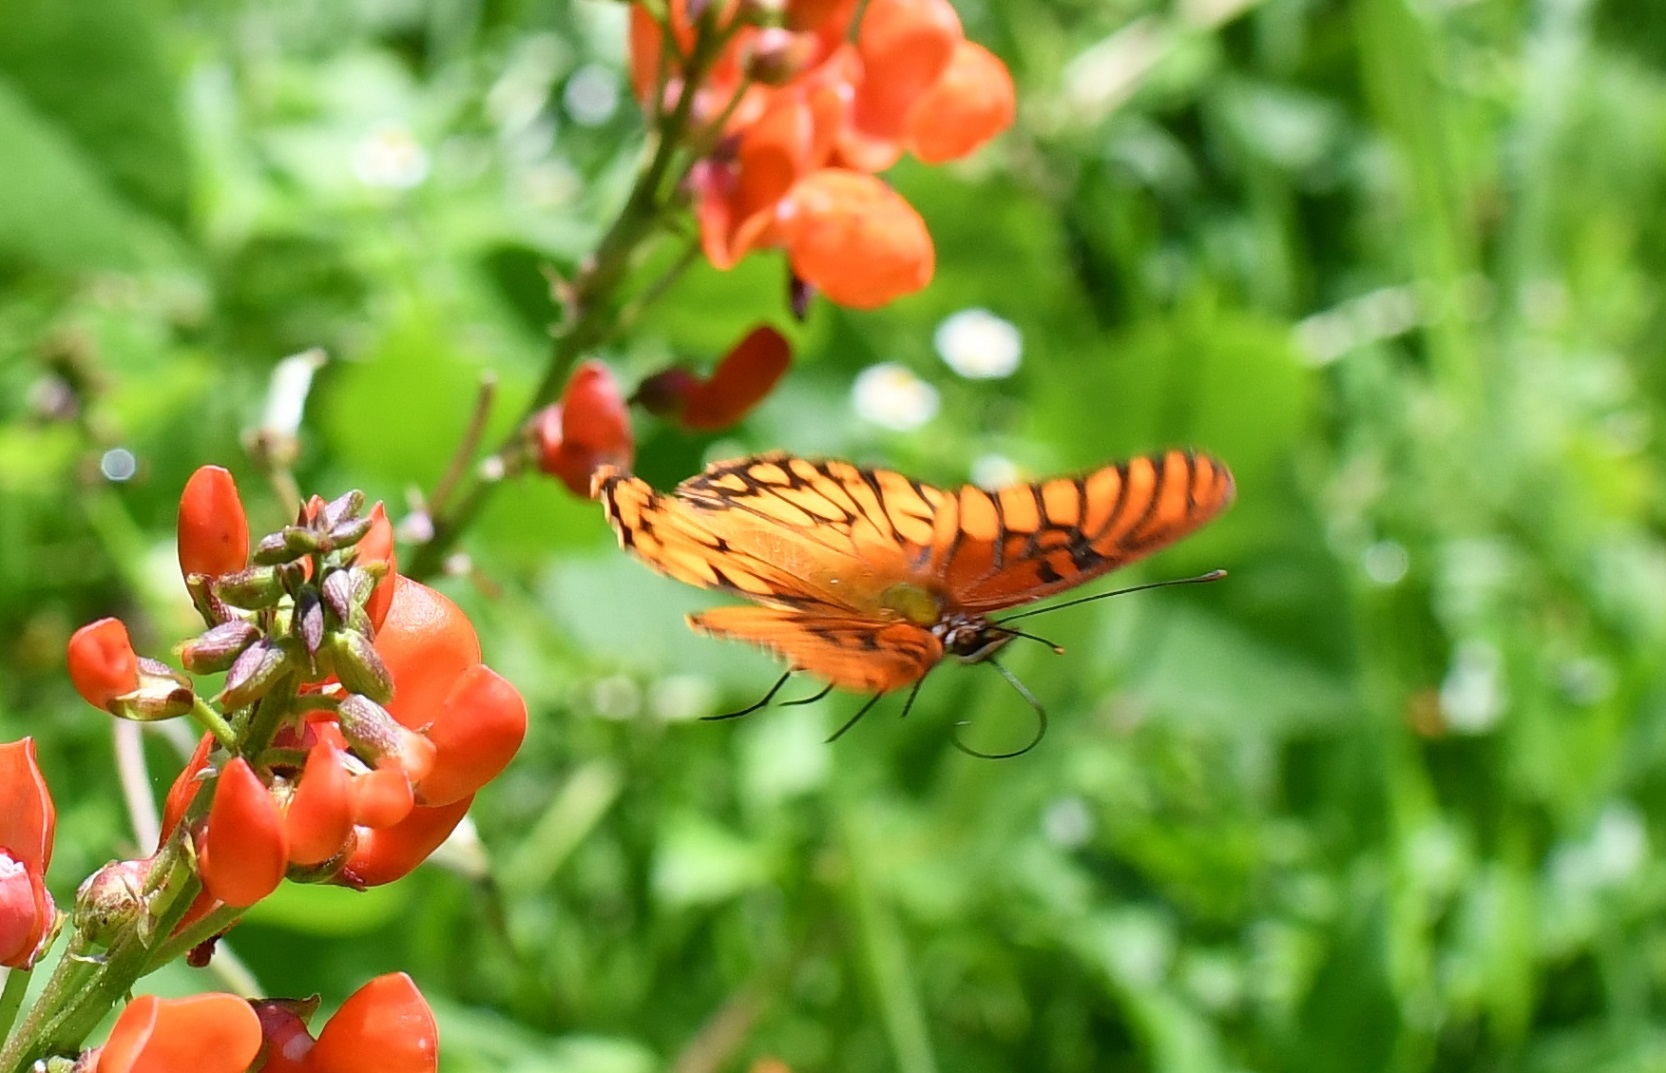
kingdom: Animalia
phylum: Arthropoda
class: Insecta
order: Lepidoptera
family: Nymphalidae
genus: Dione
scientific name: Dione moneta
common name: Mexican silverspot
